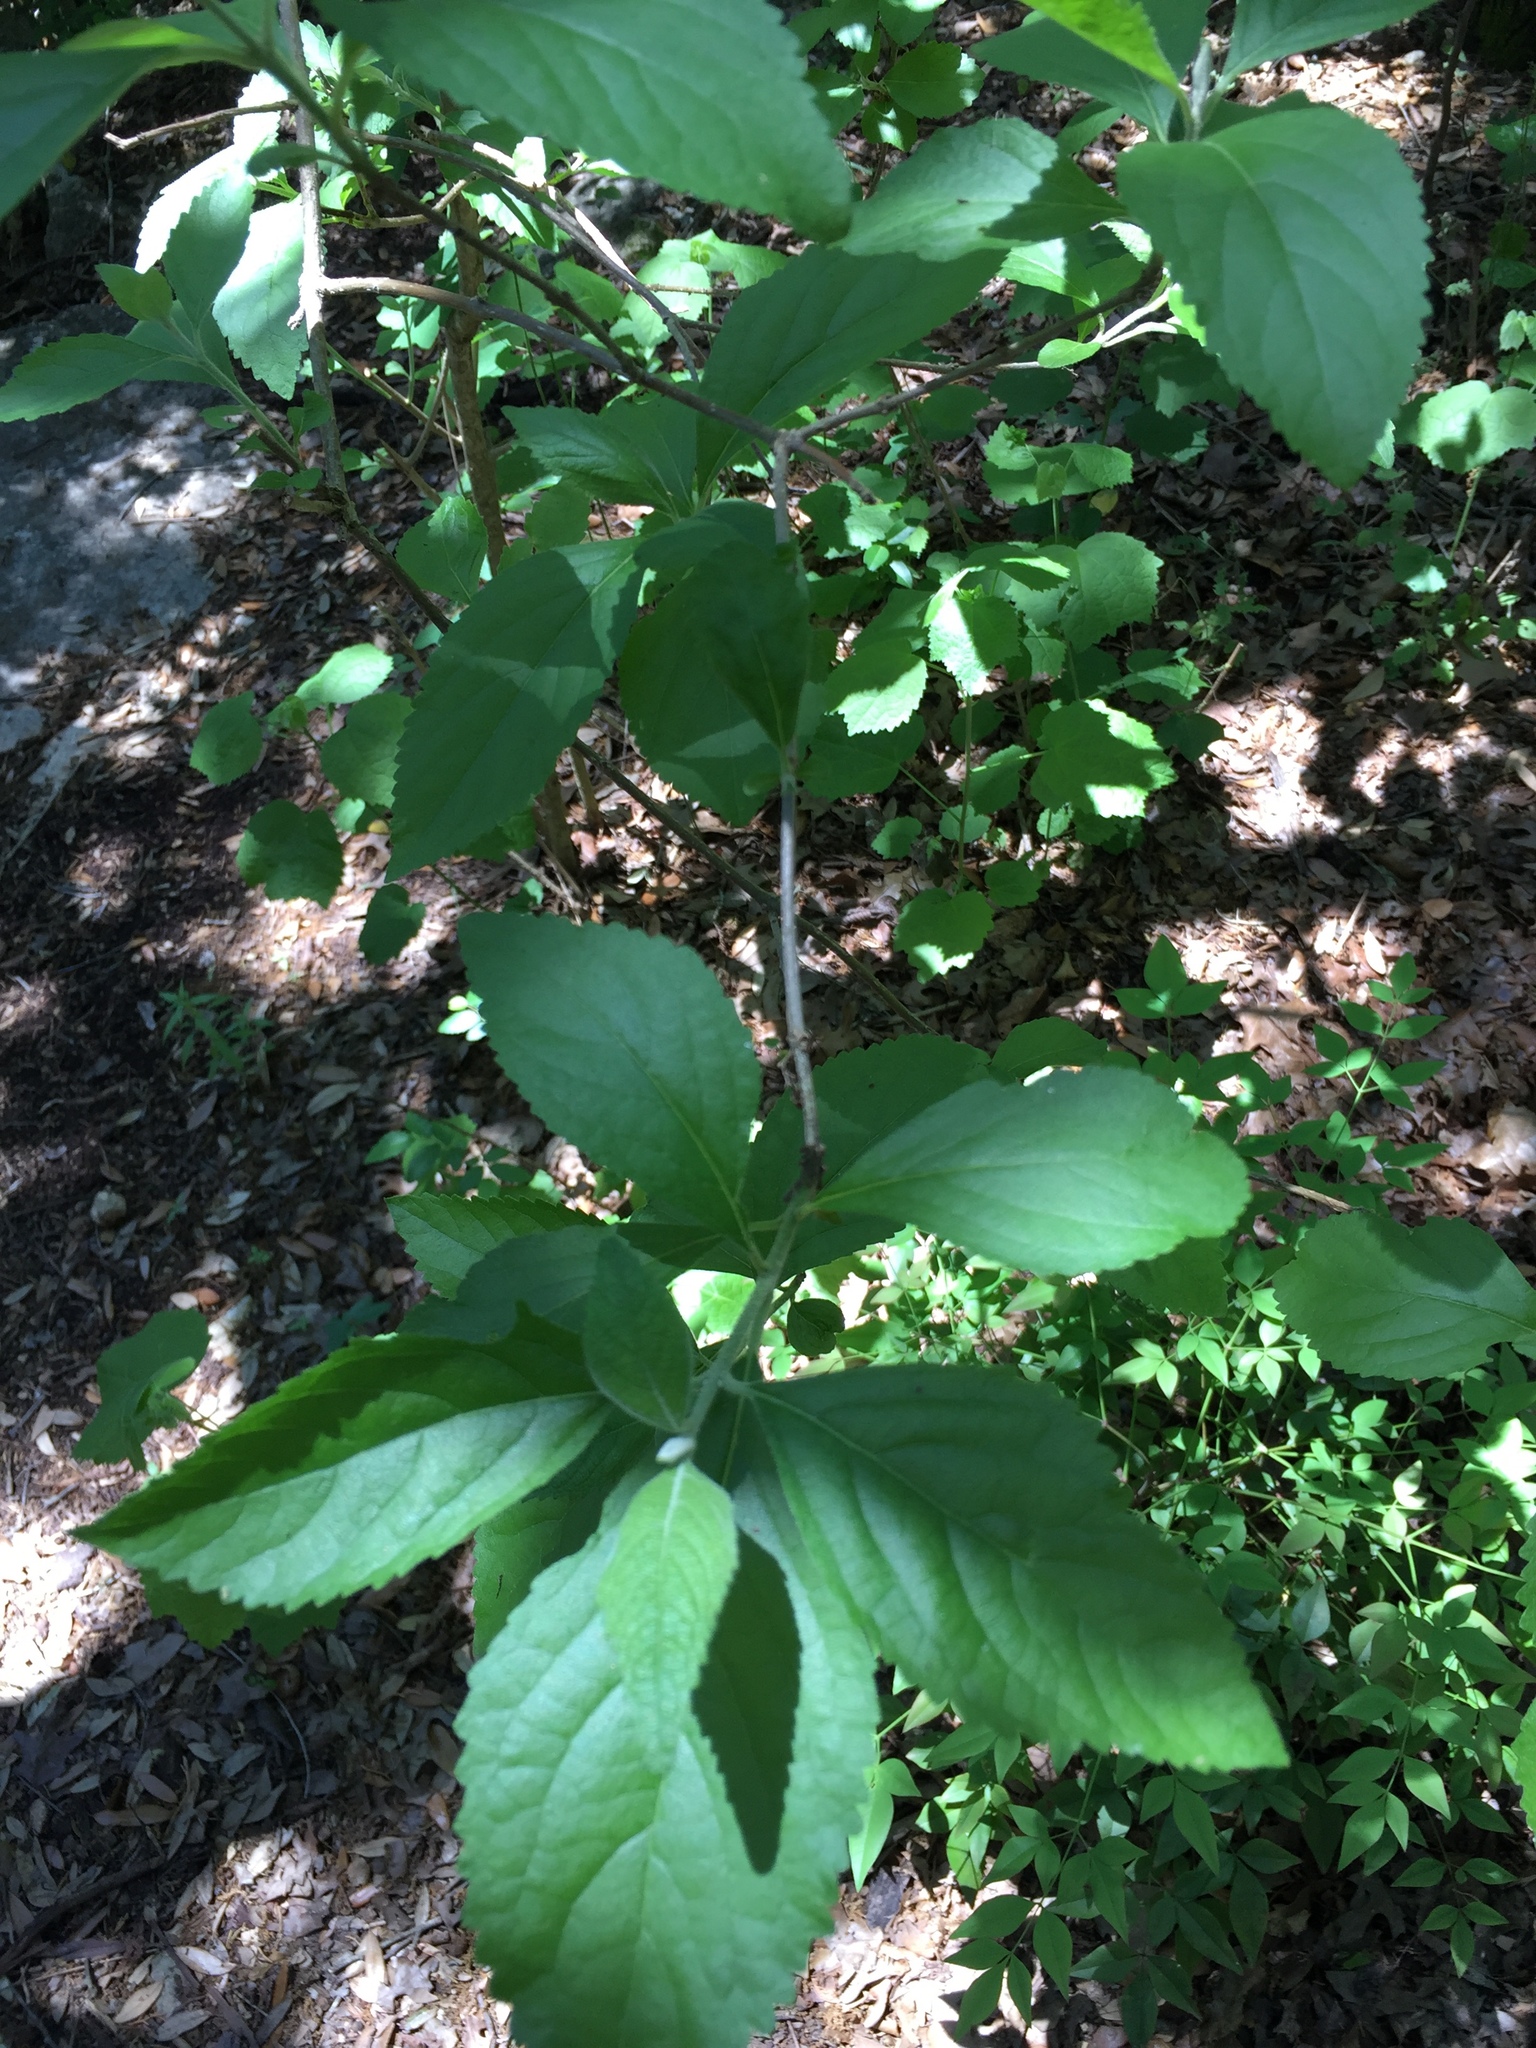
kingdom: Plantae
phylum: Tracheophyta
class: Magnoliopsida
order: Lamiales
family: Lamiaceae
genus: Callicarpa
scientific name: Callicarpa americana
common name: American beautyberry
